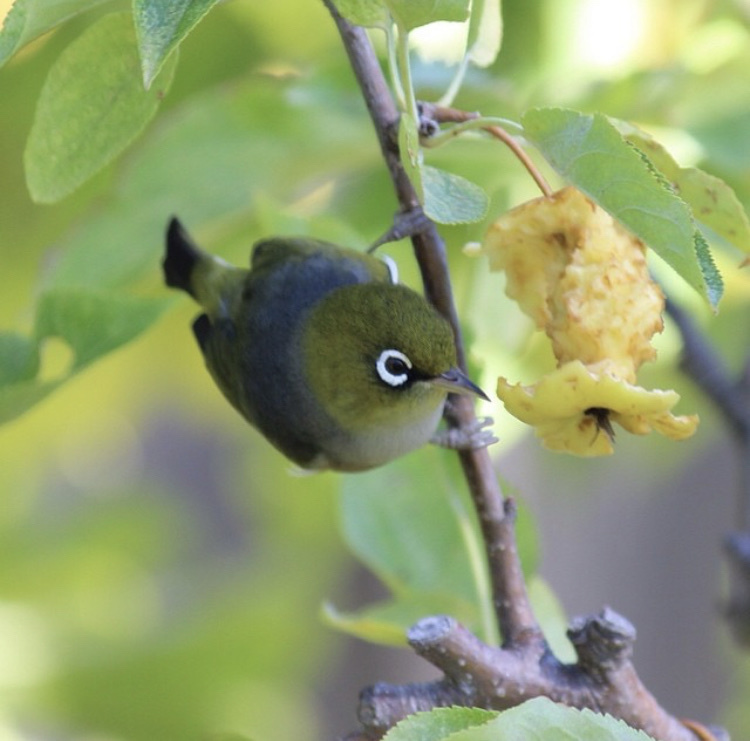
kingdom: Animalia
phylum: Chordata
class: Aves
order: Passeriformes
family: Zosteropidae
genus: Zosterops
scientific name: Zosterops lateralis
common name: Silvereye
